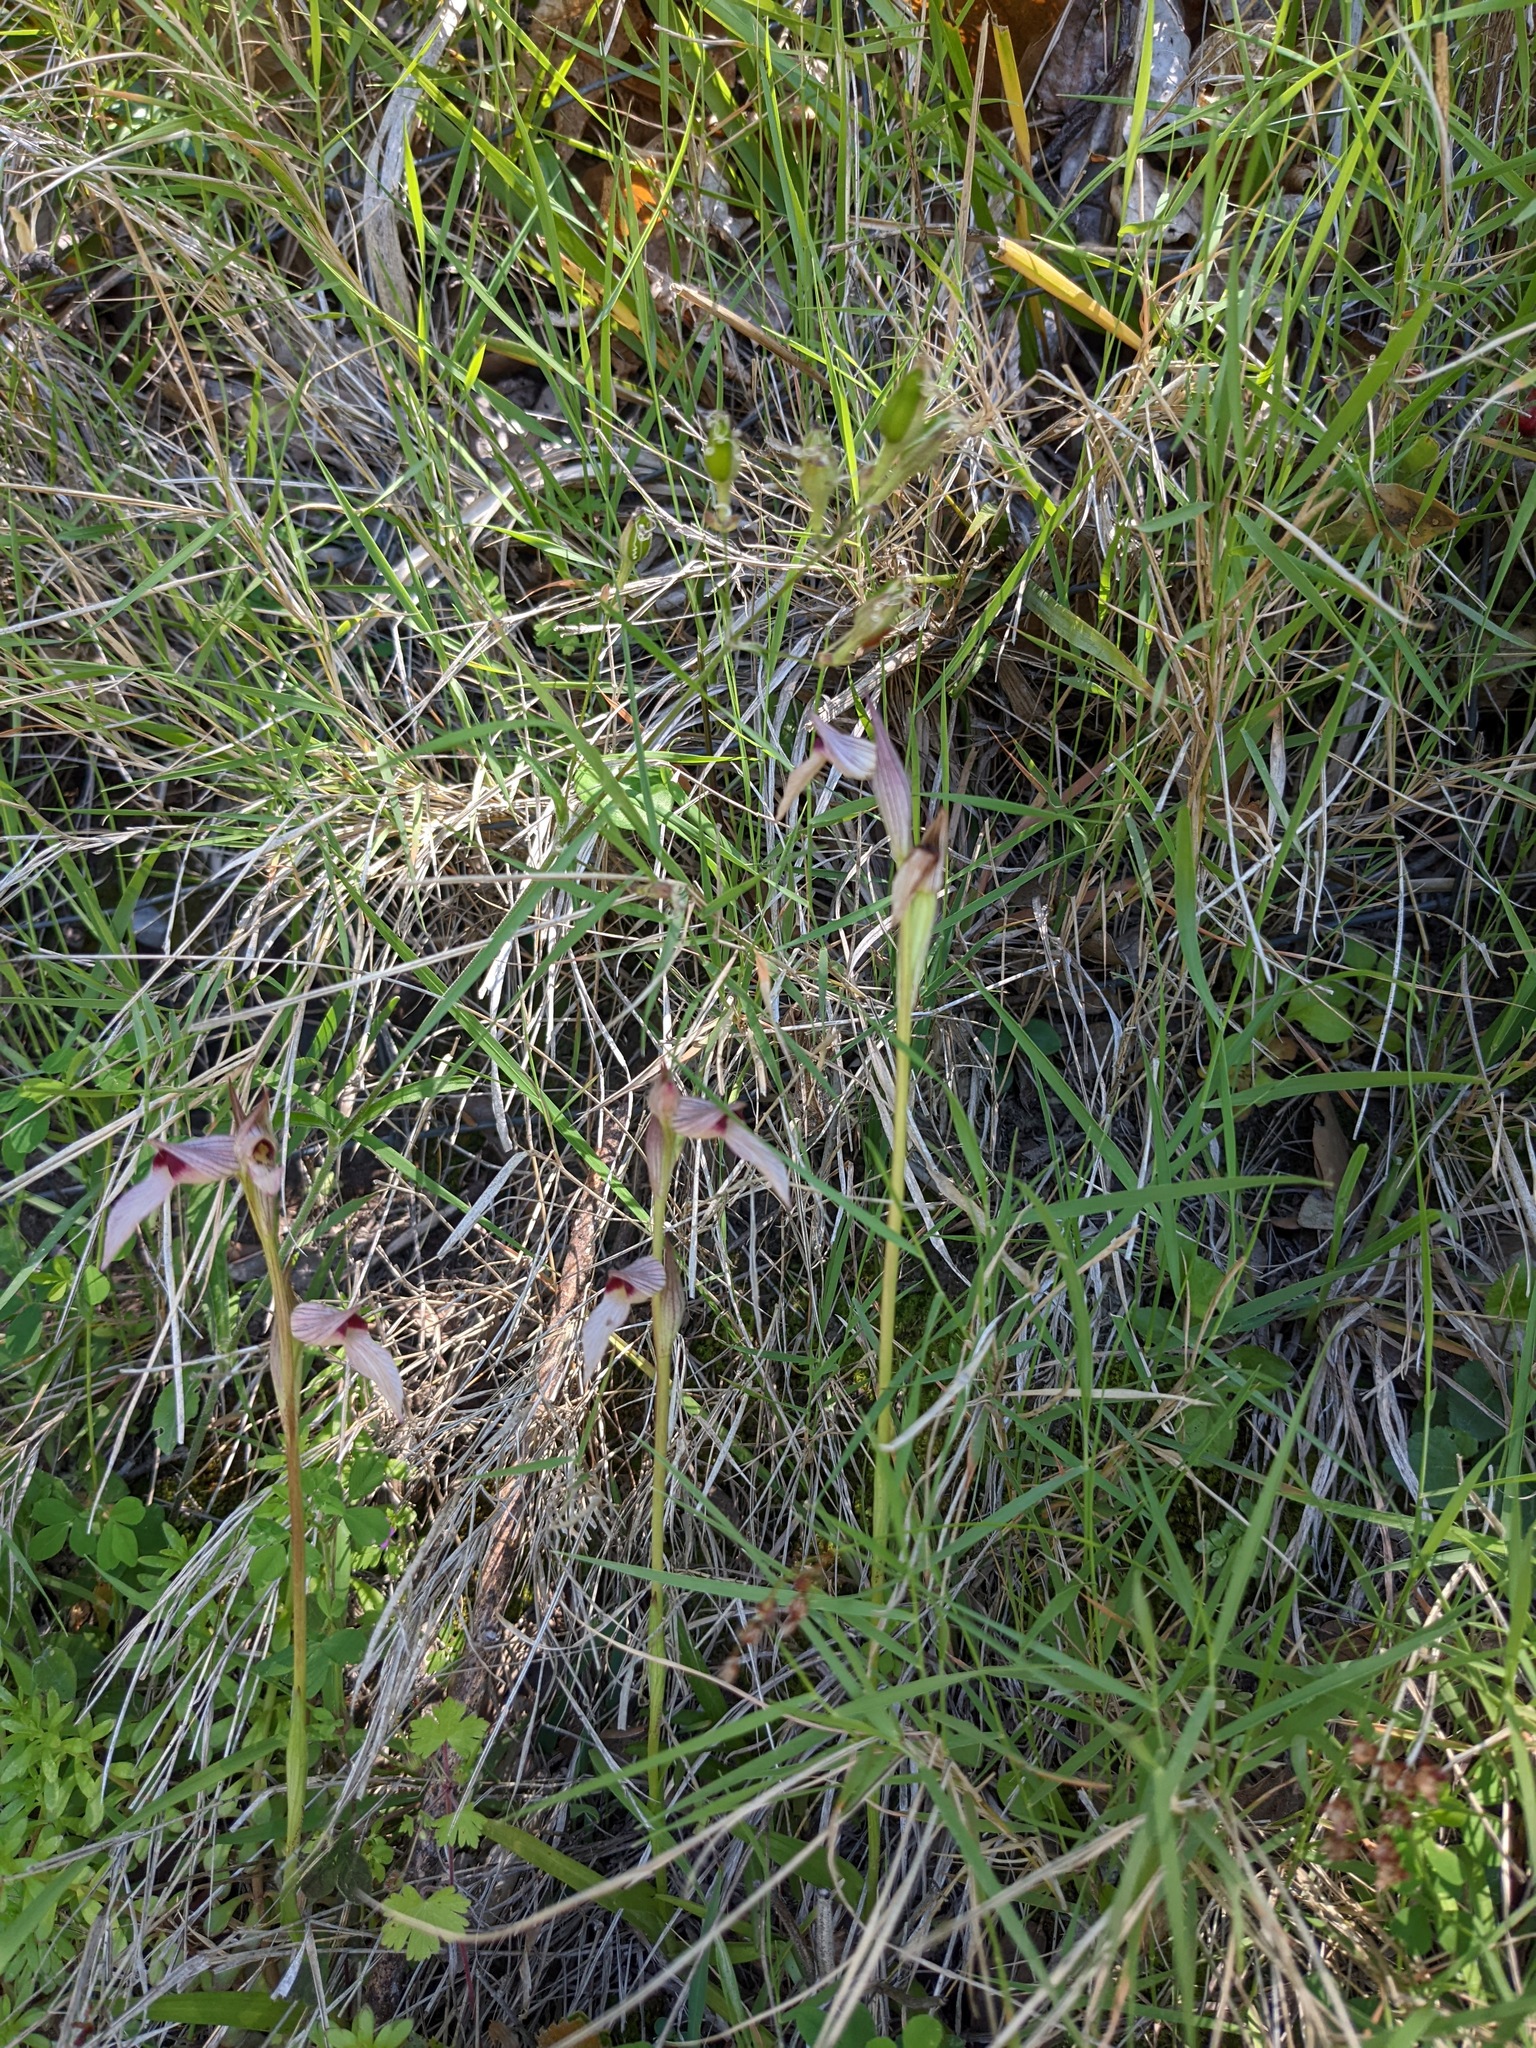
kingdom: Plantae
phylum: Tracheophyta
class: Liliopsida
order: Asparagales
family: Orchidaceae
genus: Serapias
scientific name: Serapias lingua
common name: Tongue-orchid
